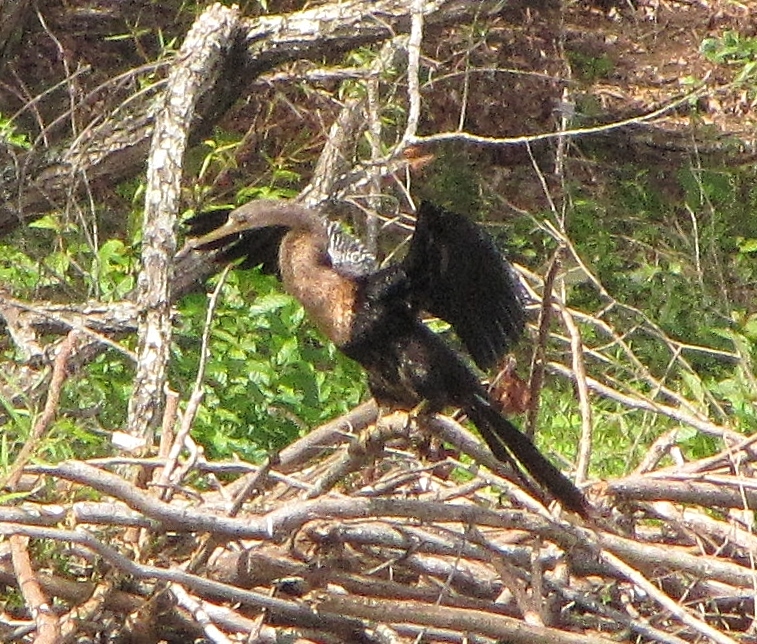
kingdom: Animalia
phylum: Chordata
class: Aves
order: Suliformes
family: Anhingidae
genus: Anhinga
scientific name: Anhinga anhinga
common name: Anhinga
